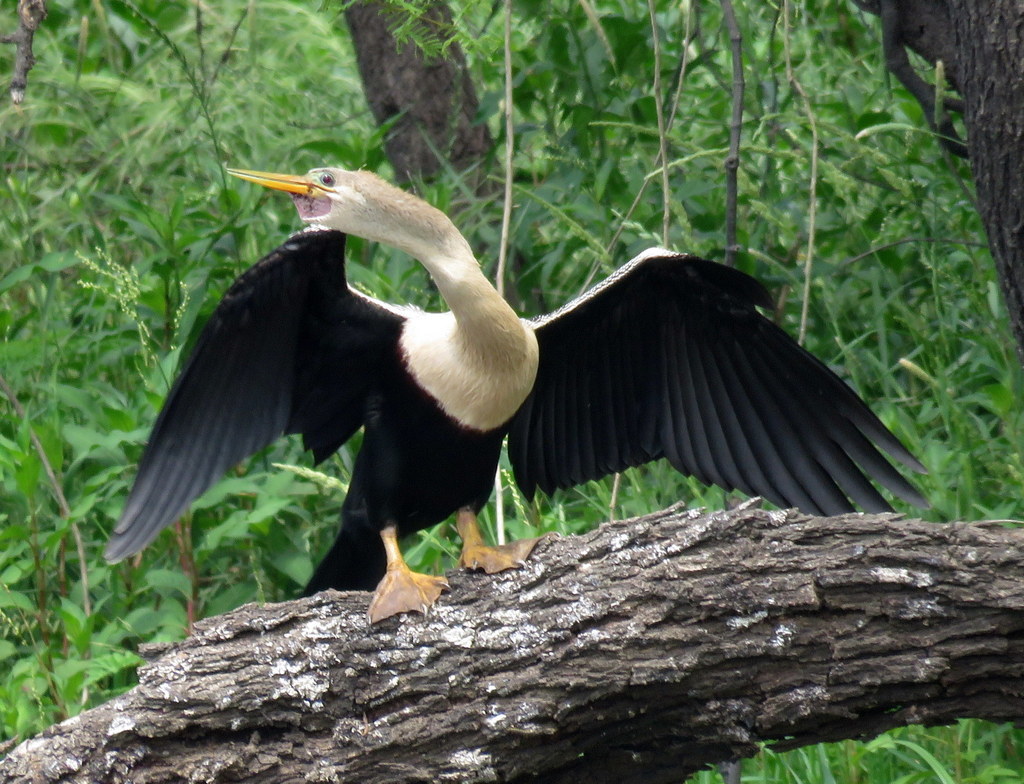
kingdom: Animalia
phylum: Chordata
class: Aves
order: Suliformes
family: Anhingidae
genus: Anhinga
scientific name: Anhinga anhinga
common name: Anhinga
